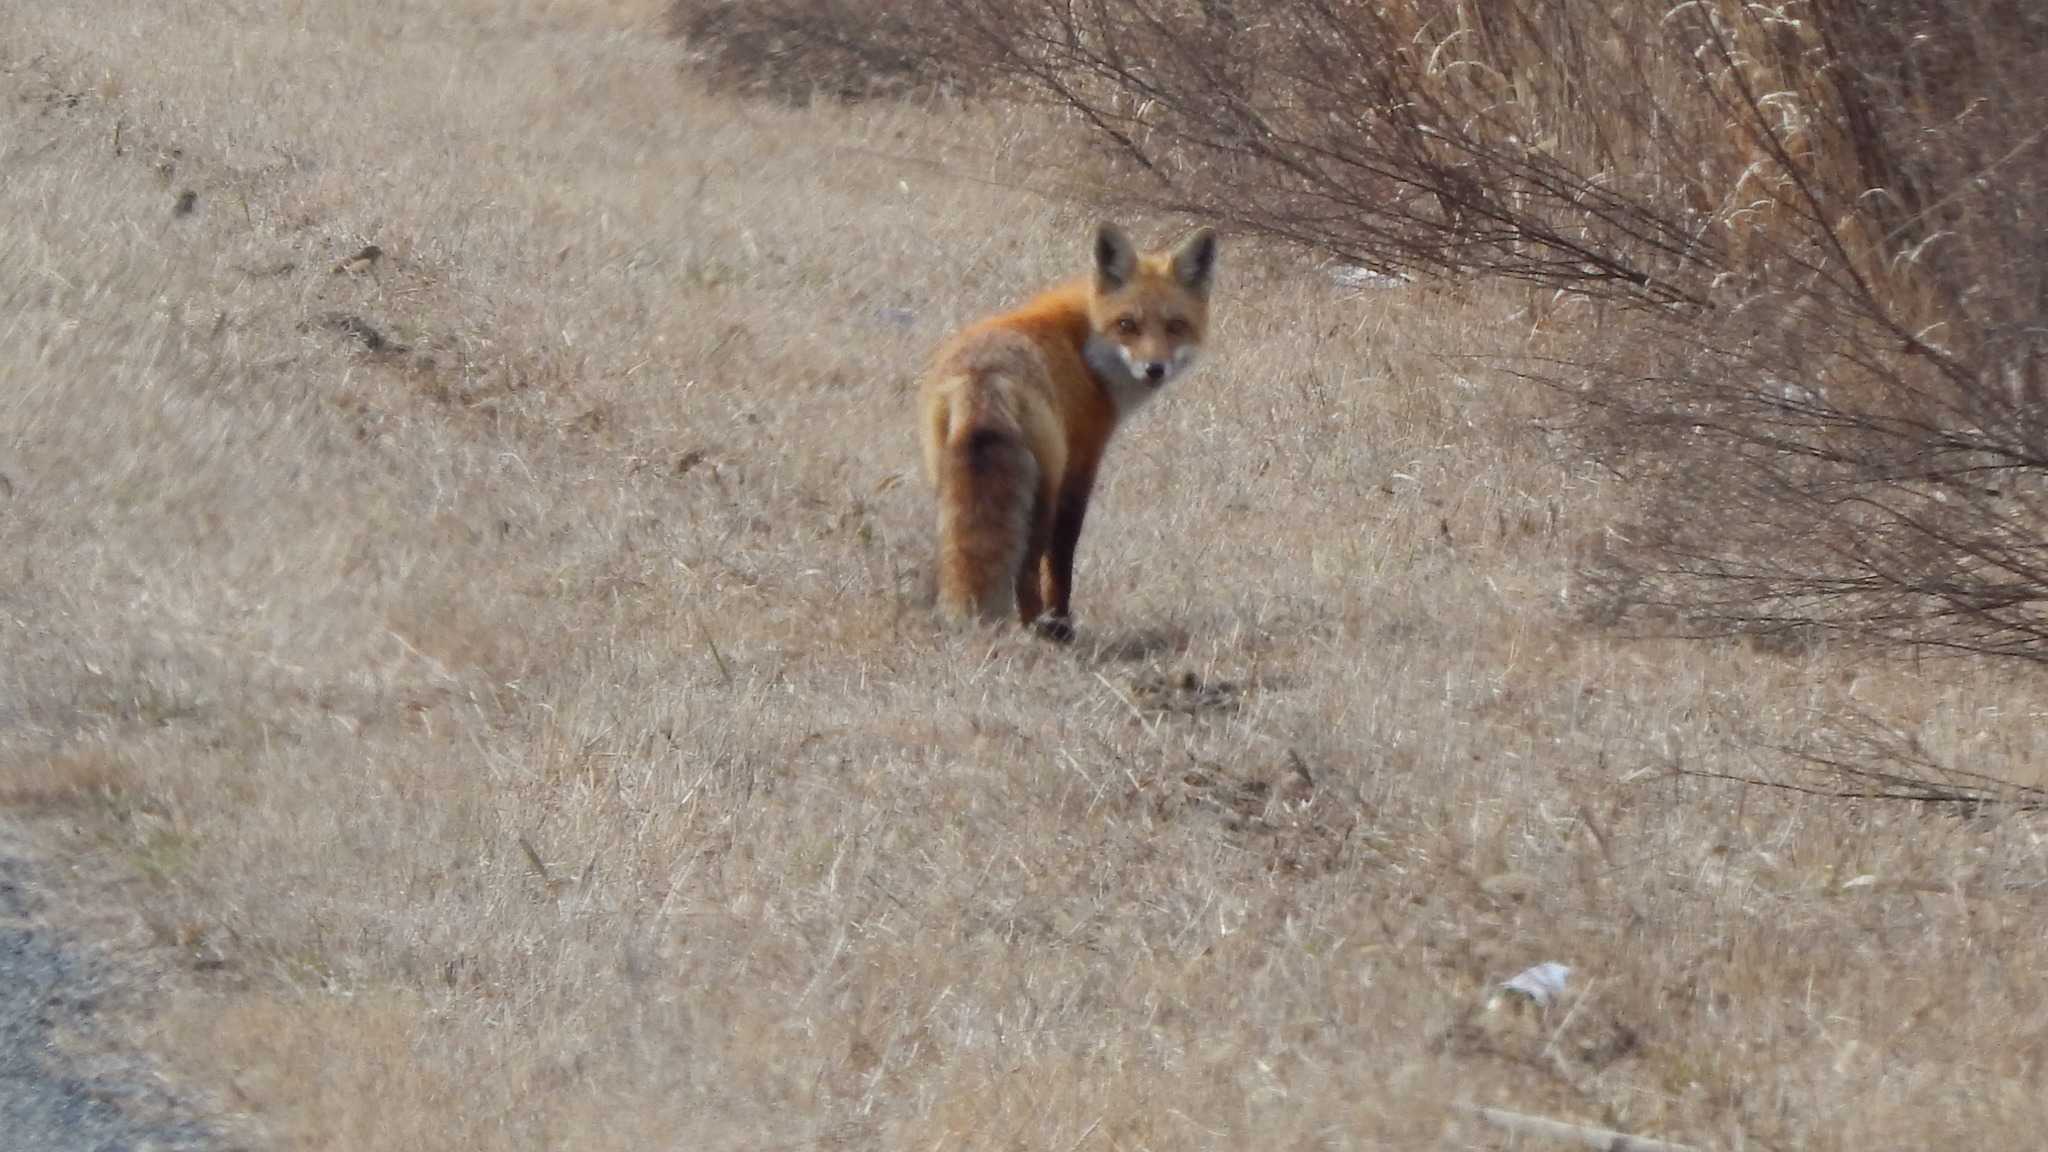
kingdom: Animalia
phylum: Chordata
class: Mammalia
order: Carnivora
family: Canidae
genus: Vulpes
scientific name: Vulpes vulpes
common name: Red fox
